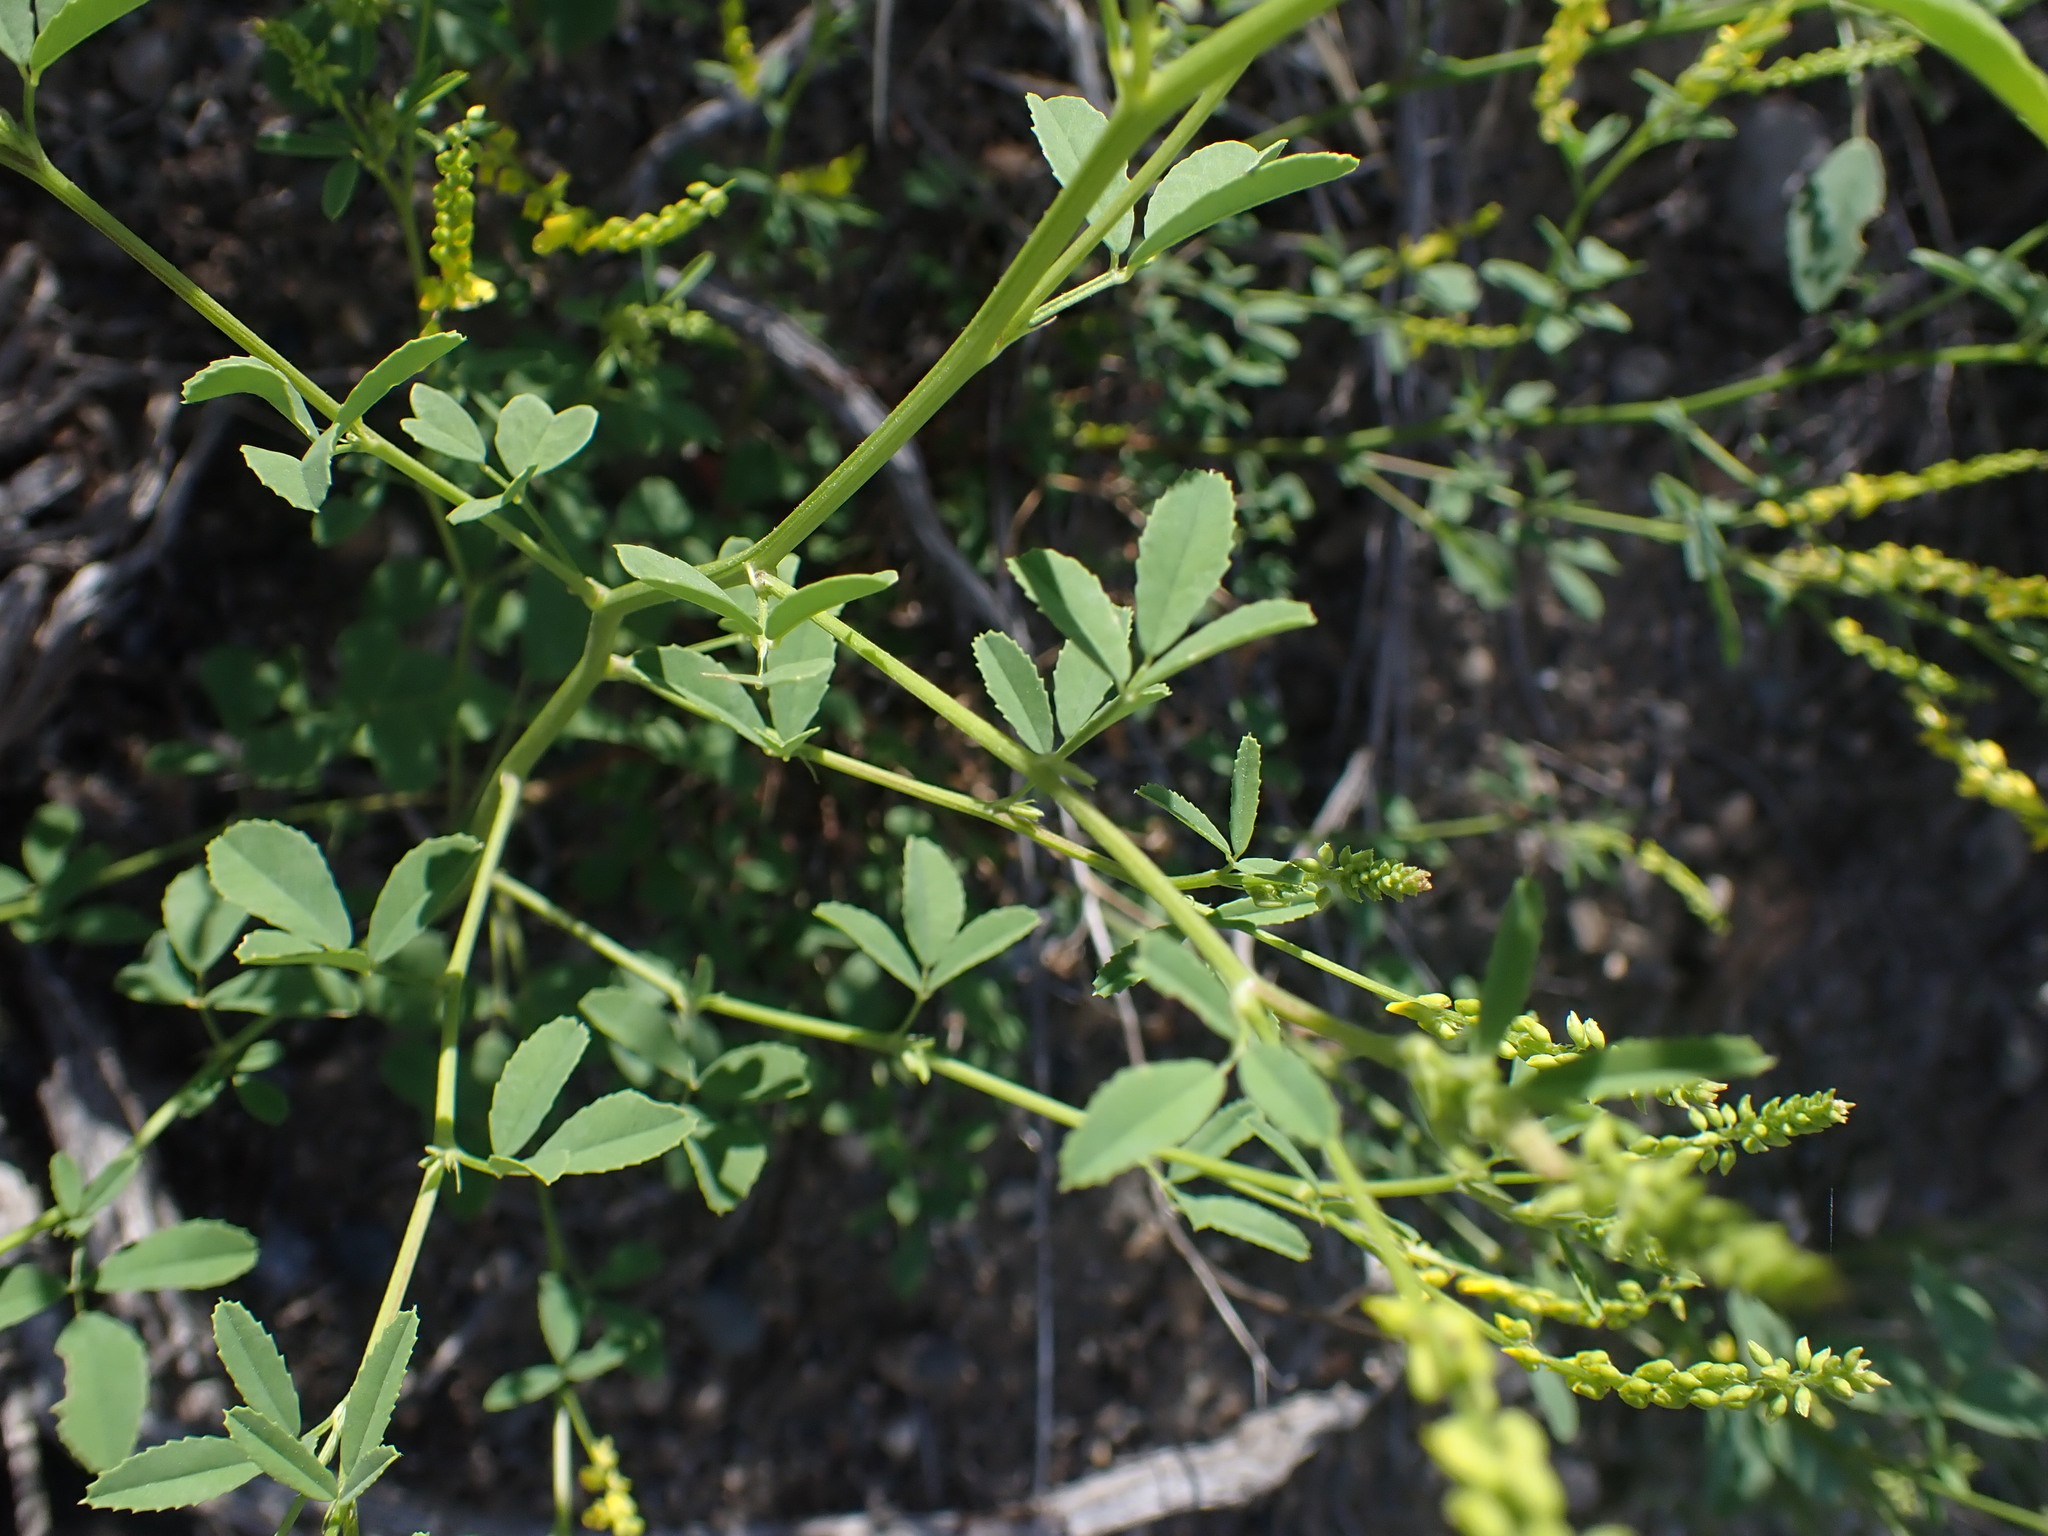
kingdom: Plantae
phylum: Tracheophyta
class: Magnoliopsida
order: Fabales
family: Fabaceae
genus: Melilotus
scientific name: Melilotus officinalis
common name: Sweetclover
